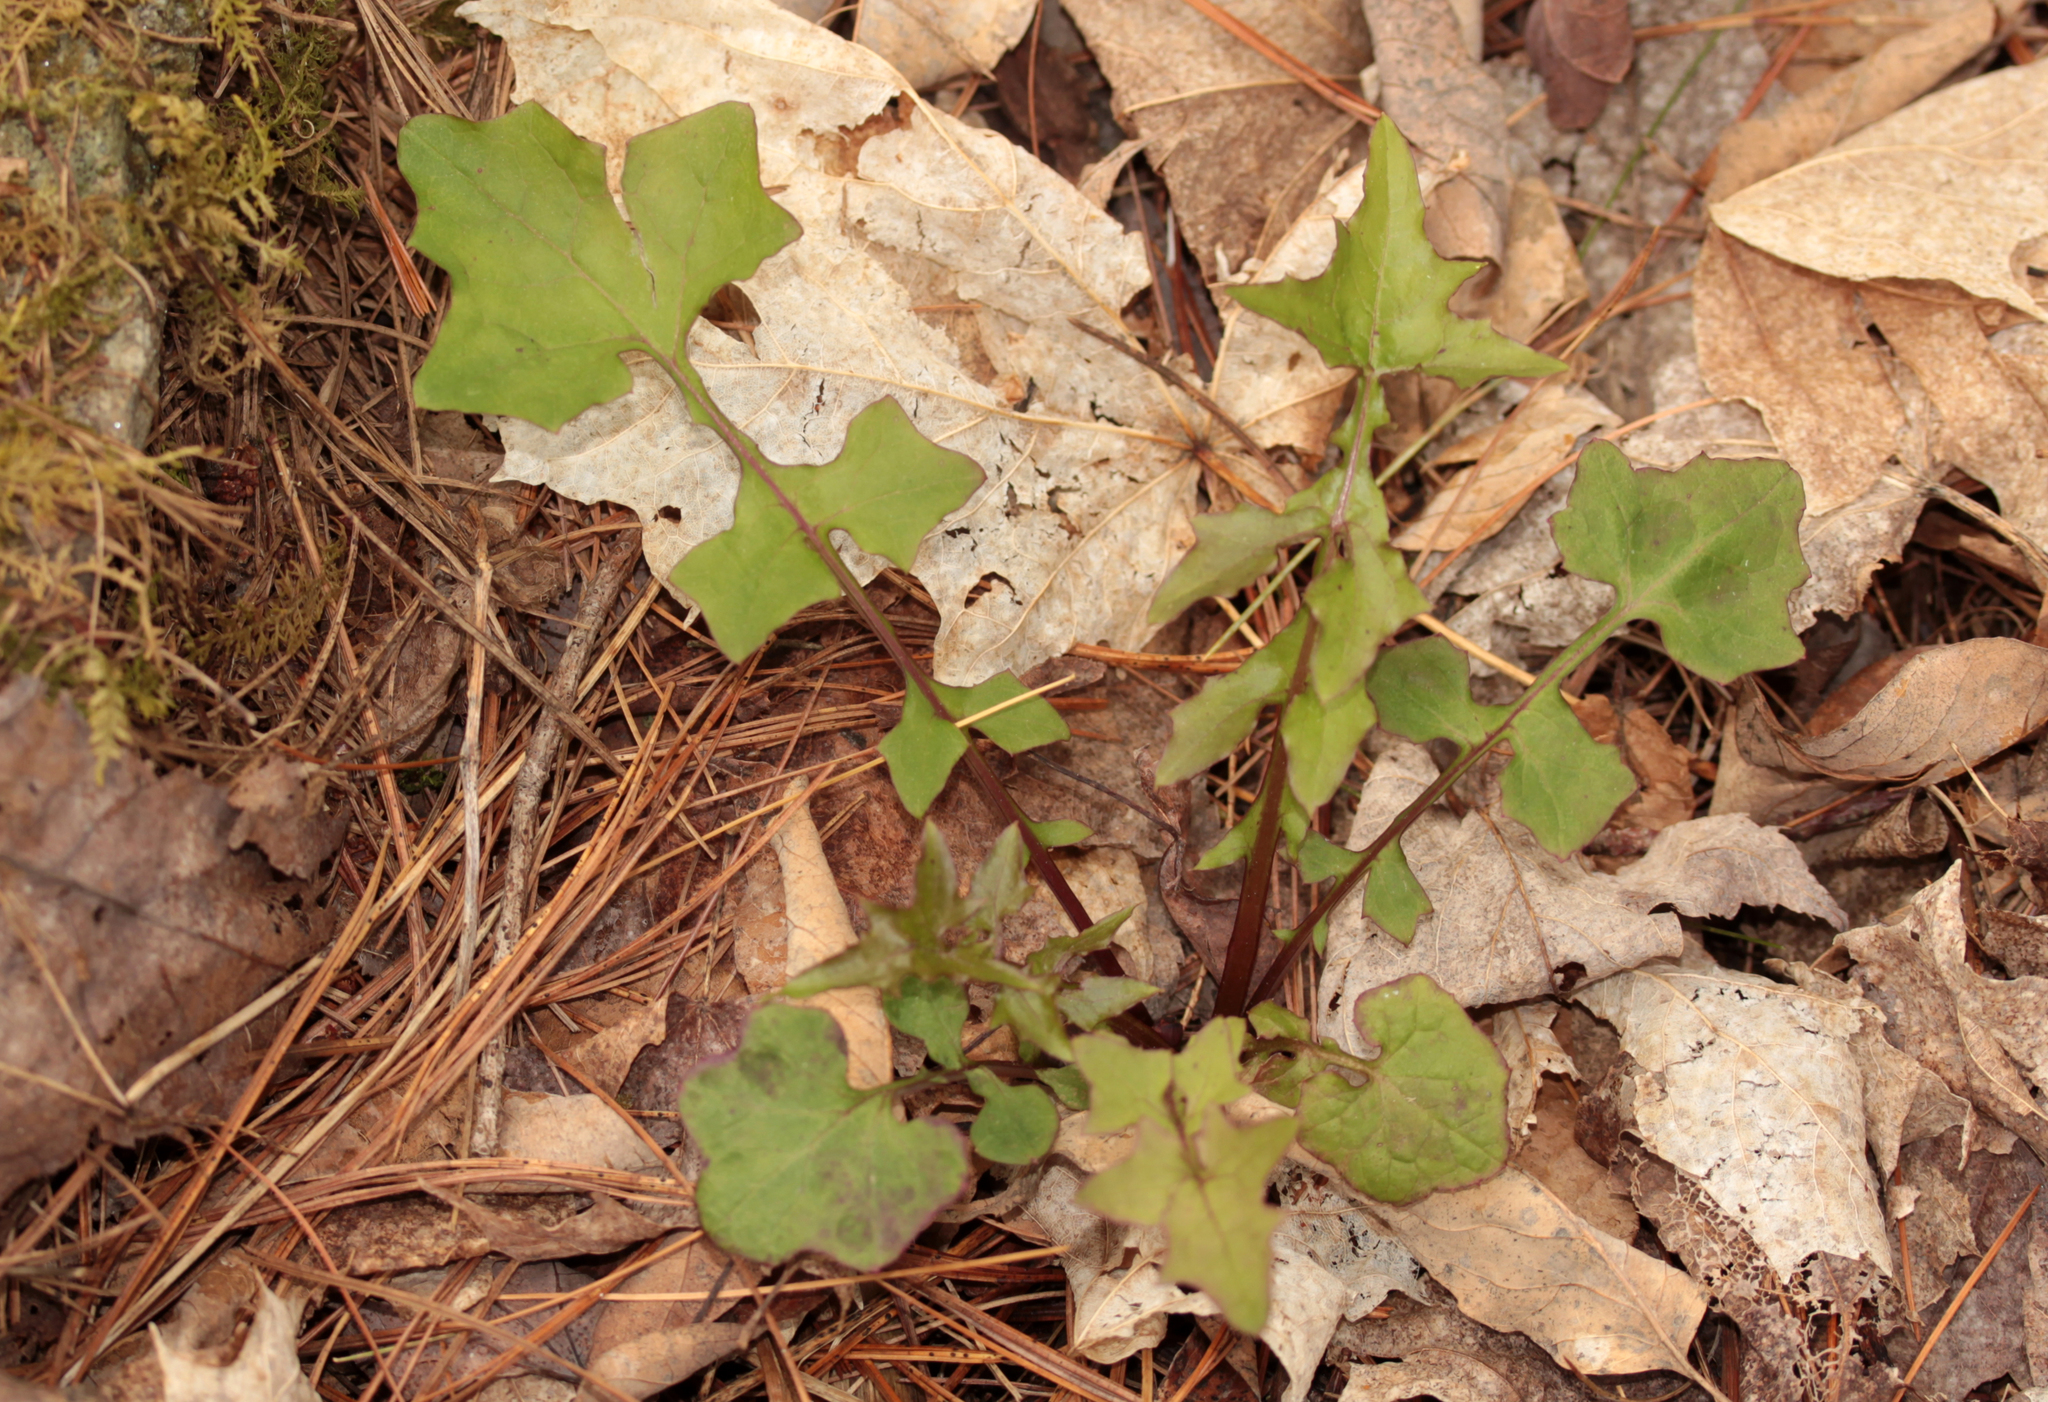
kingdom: Plantae
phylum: Tracheophyta
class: Magnoliopsida
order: Asterales
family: Asteraceae
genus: Mycelis
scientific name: Mycelis muralis
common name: Wall lettuce
